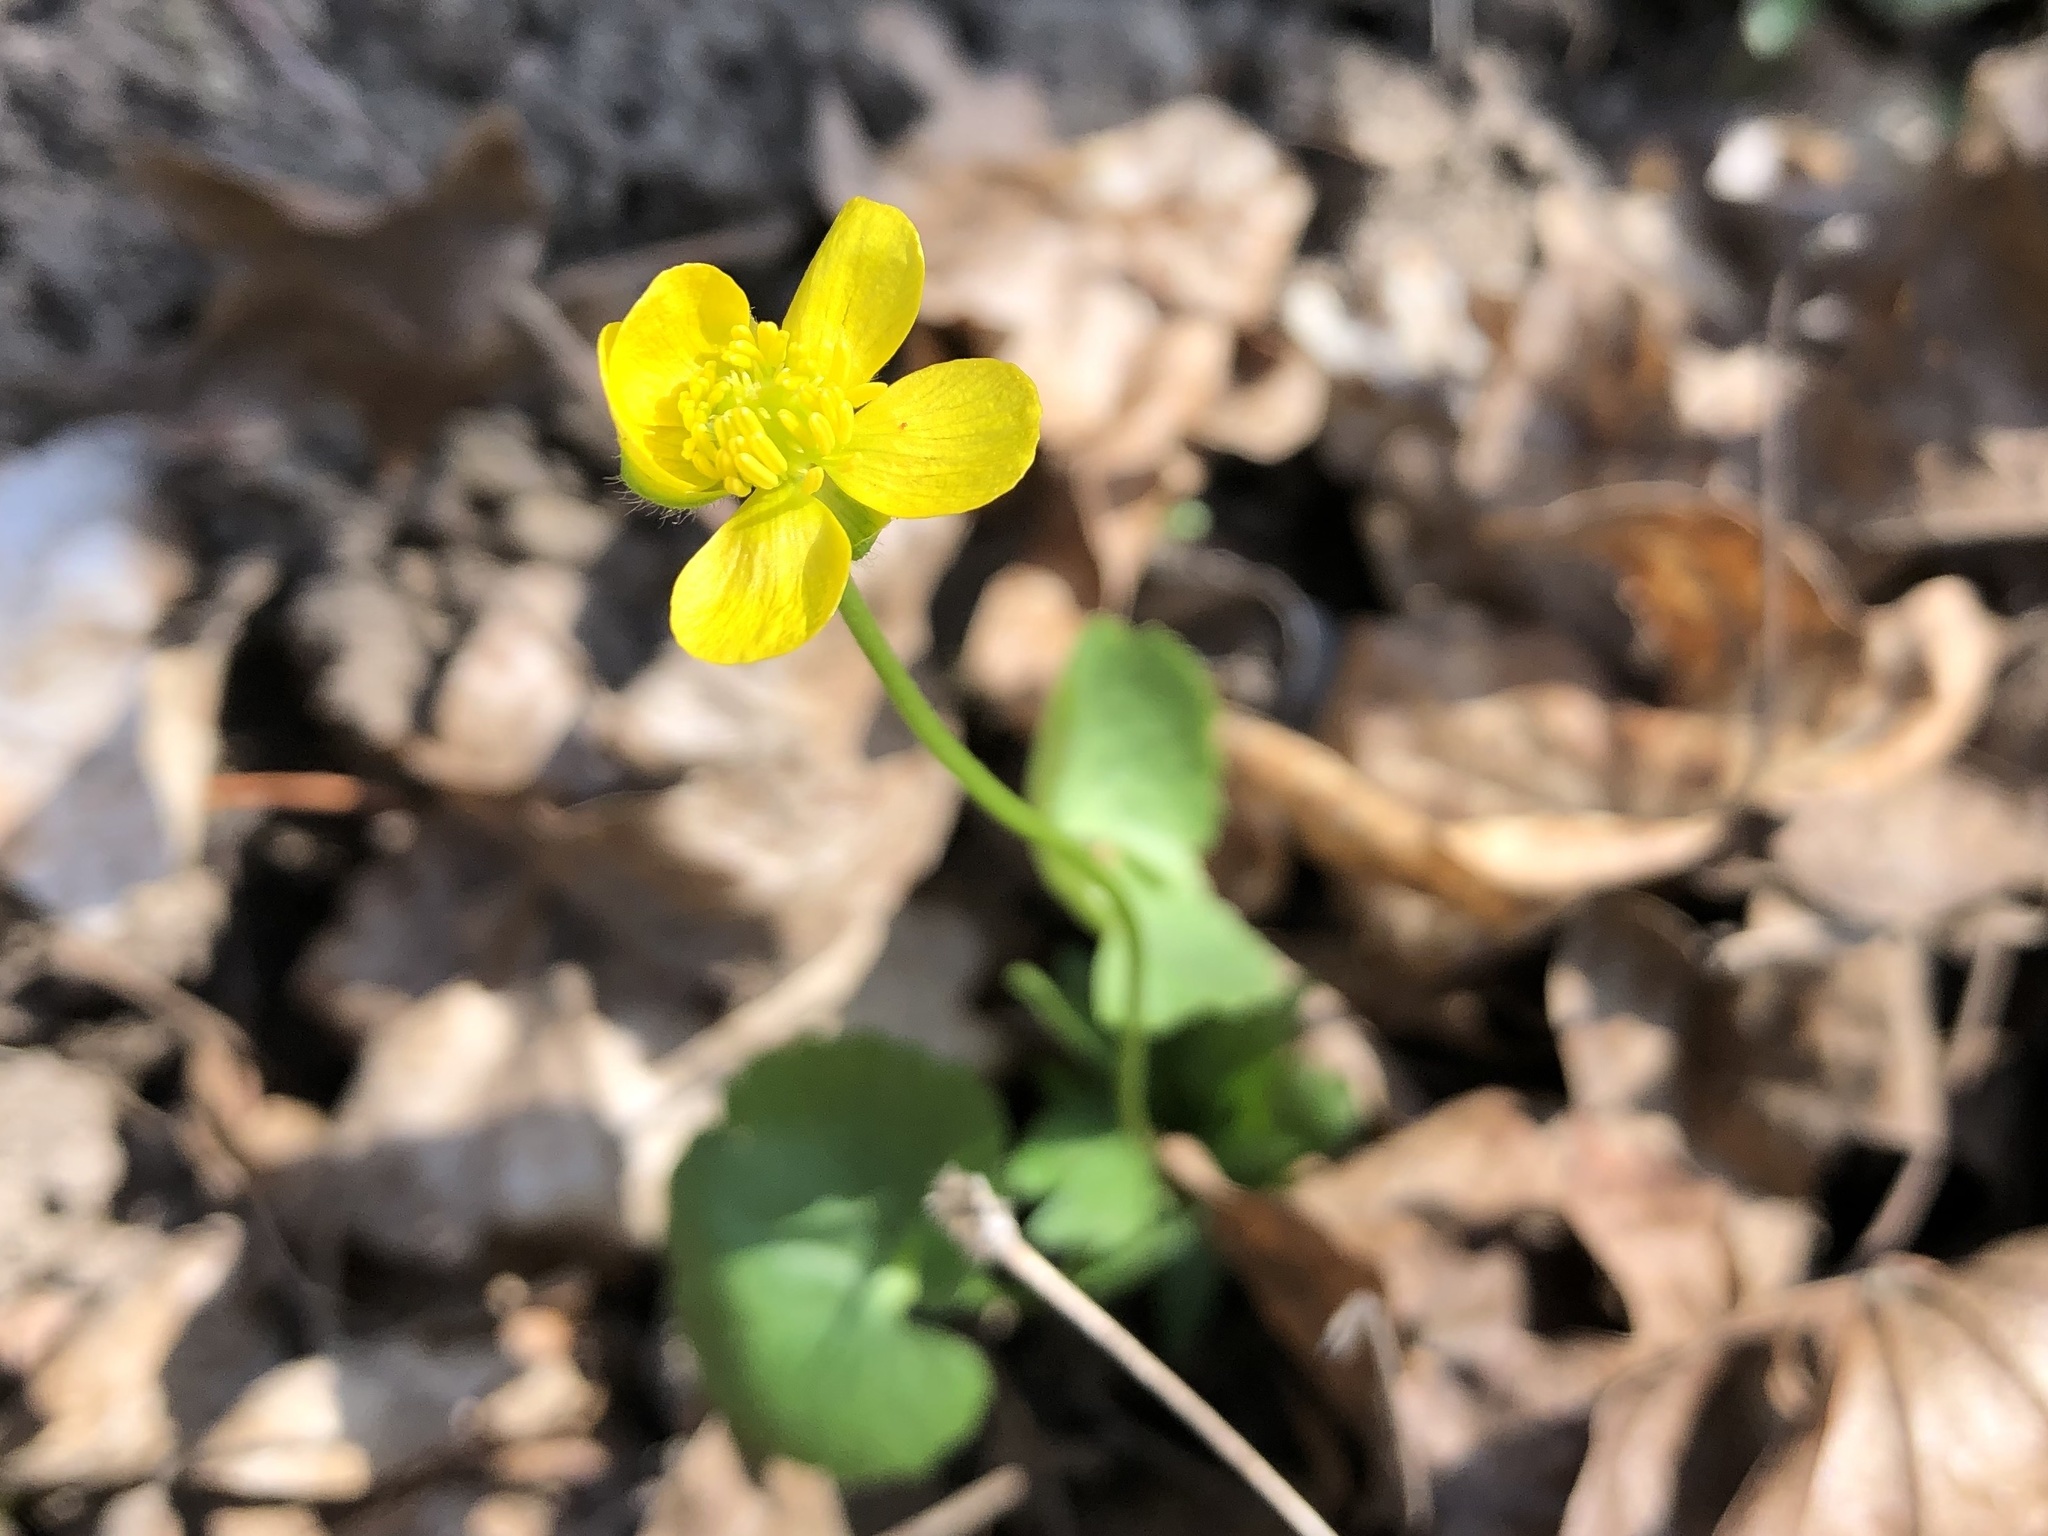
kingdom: Plantae
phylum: Tracheophyta
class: Magnoliopsida
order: Ranunculales
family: Ranunculaceae
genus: Ranunculus
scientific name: Ranunculus auricomus
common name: Goldilocks buttercup
